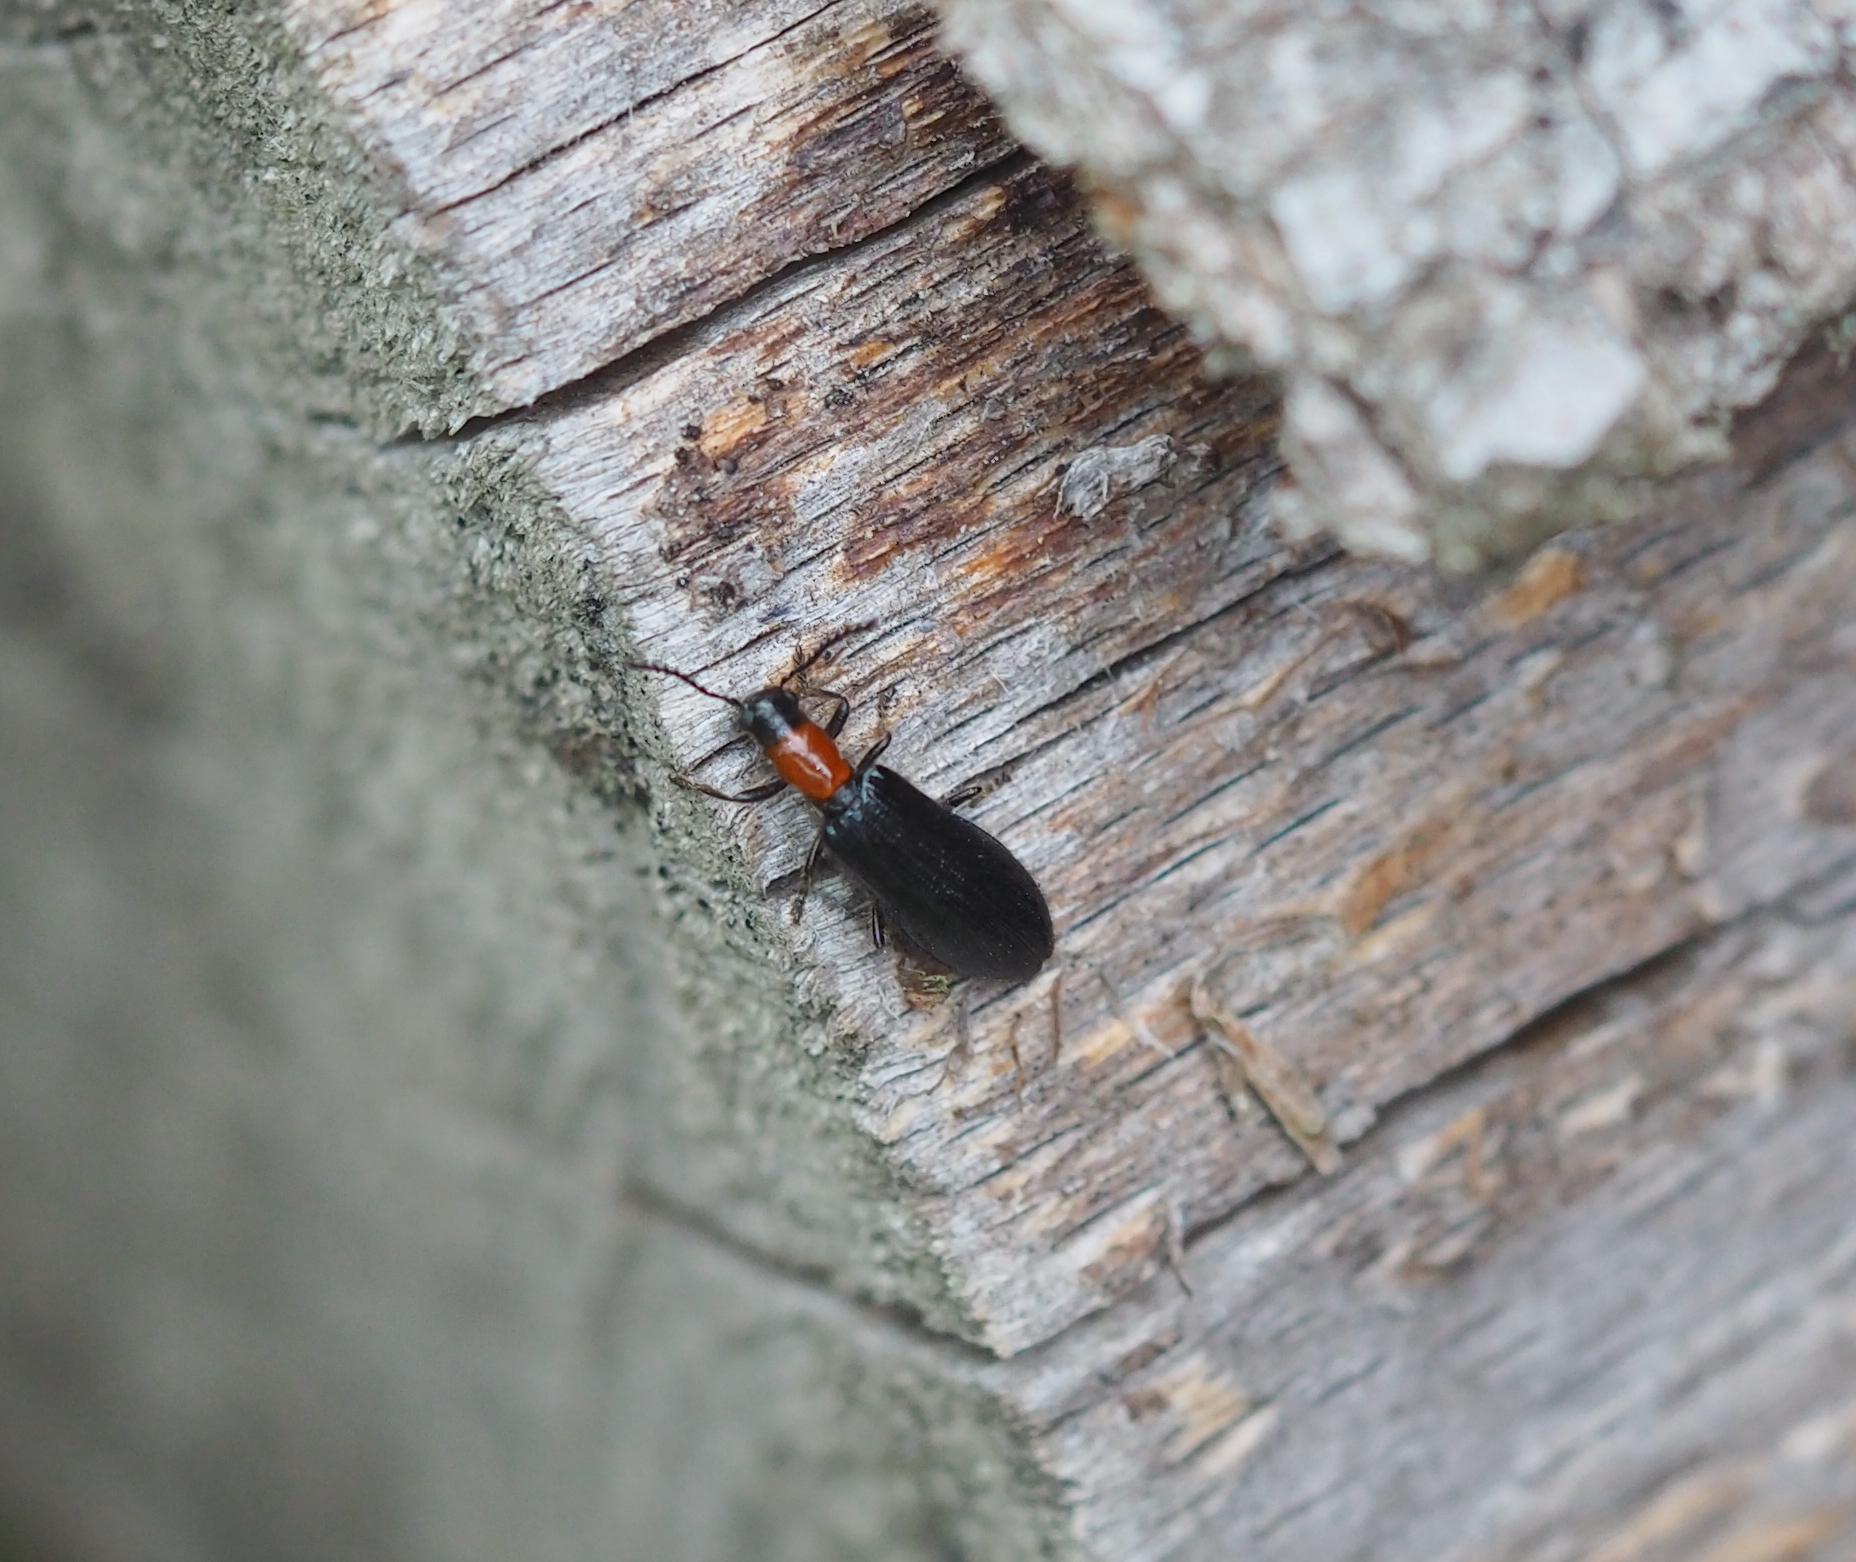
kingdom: Animalia
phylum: Arthropoda
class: Insecta
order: Coleoptera
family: Cleridae
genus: Tillus
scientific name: Tillus elongatus
